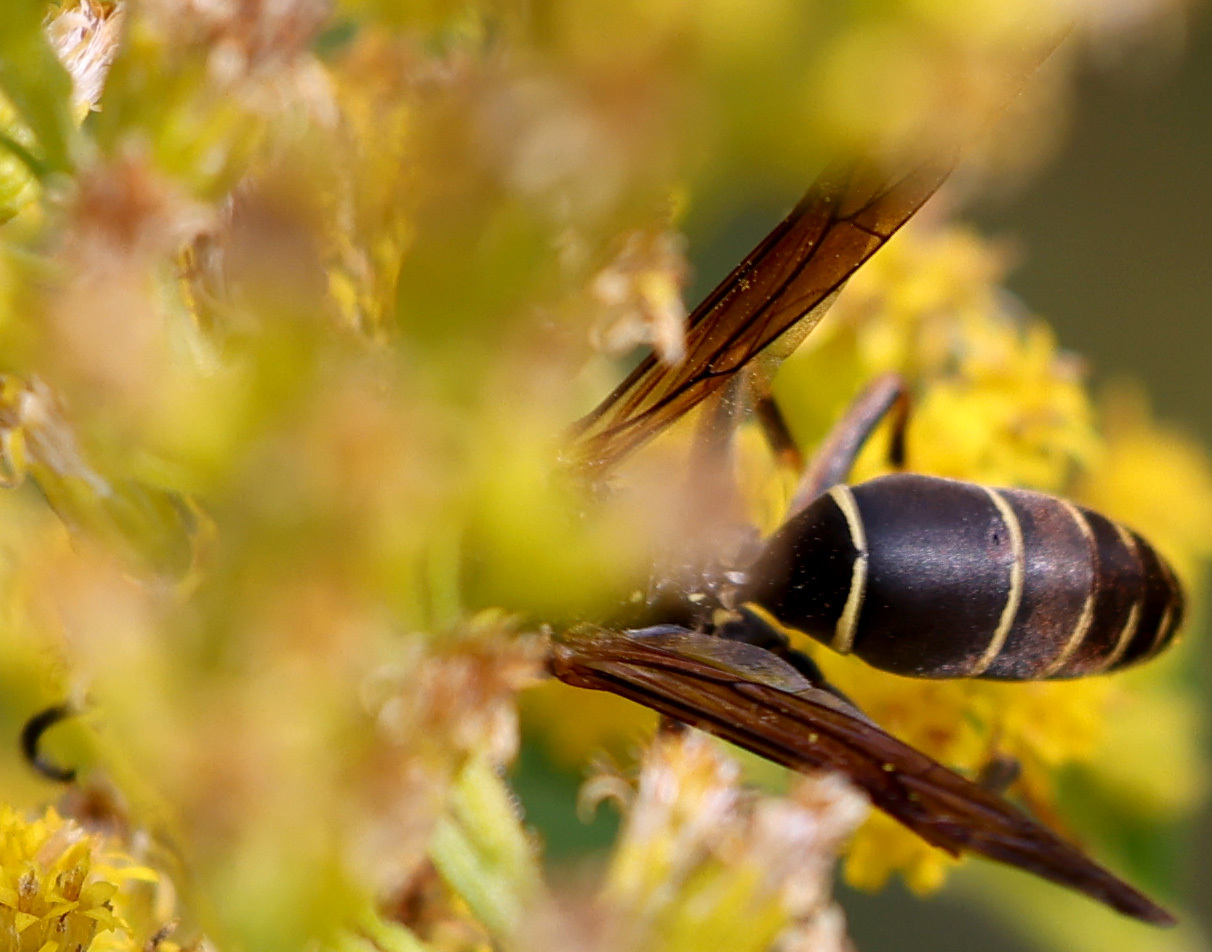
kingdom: Animalia
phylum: Arthropoda
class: Insecta
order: Hymenoptera
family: Eumenidae
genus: Polistes
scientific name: Polistes fuscatus
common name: Dark paper wasp
